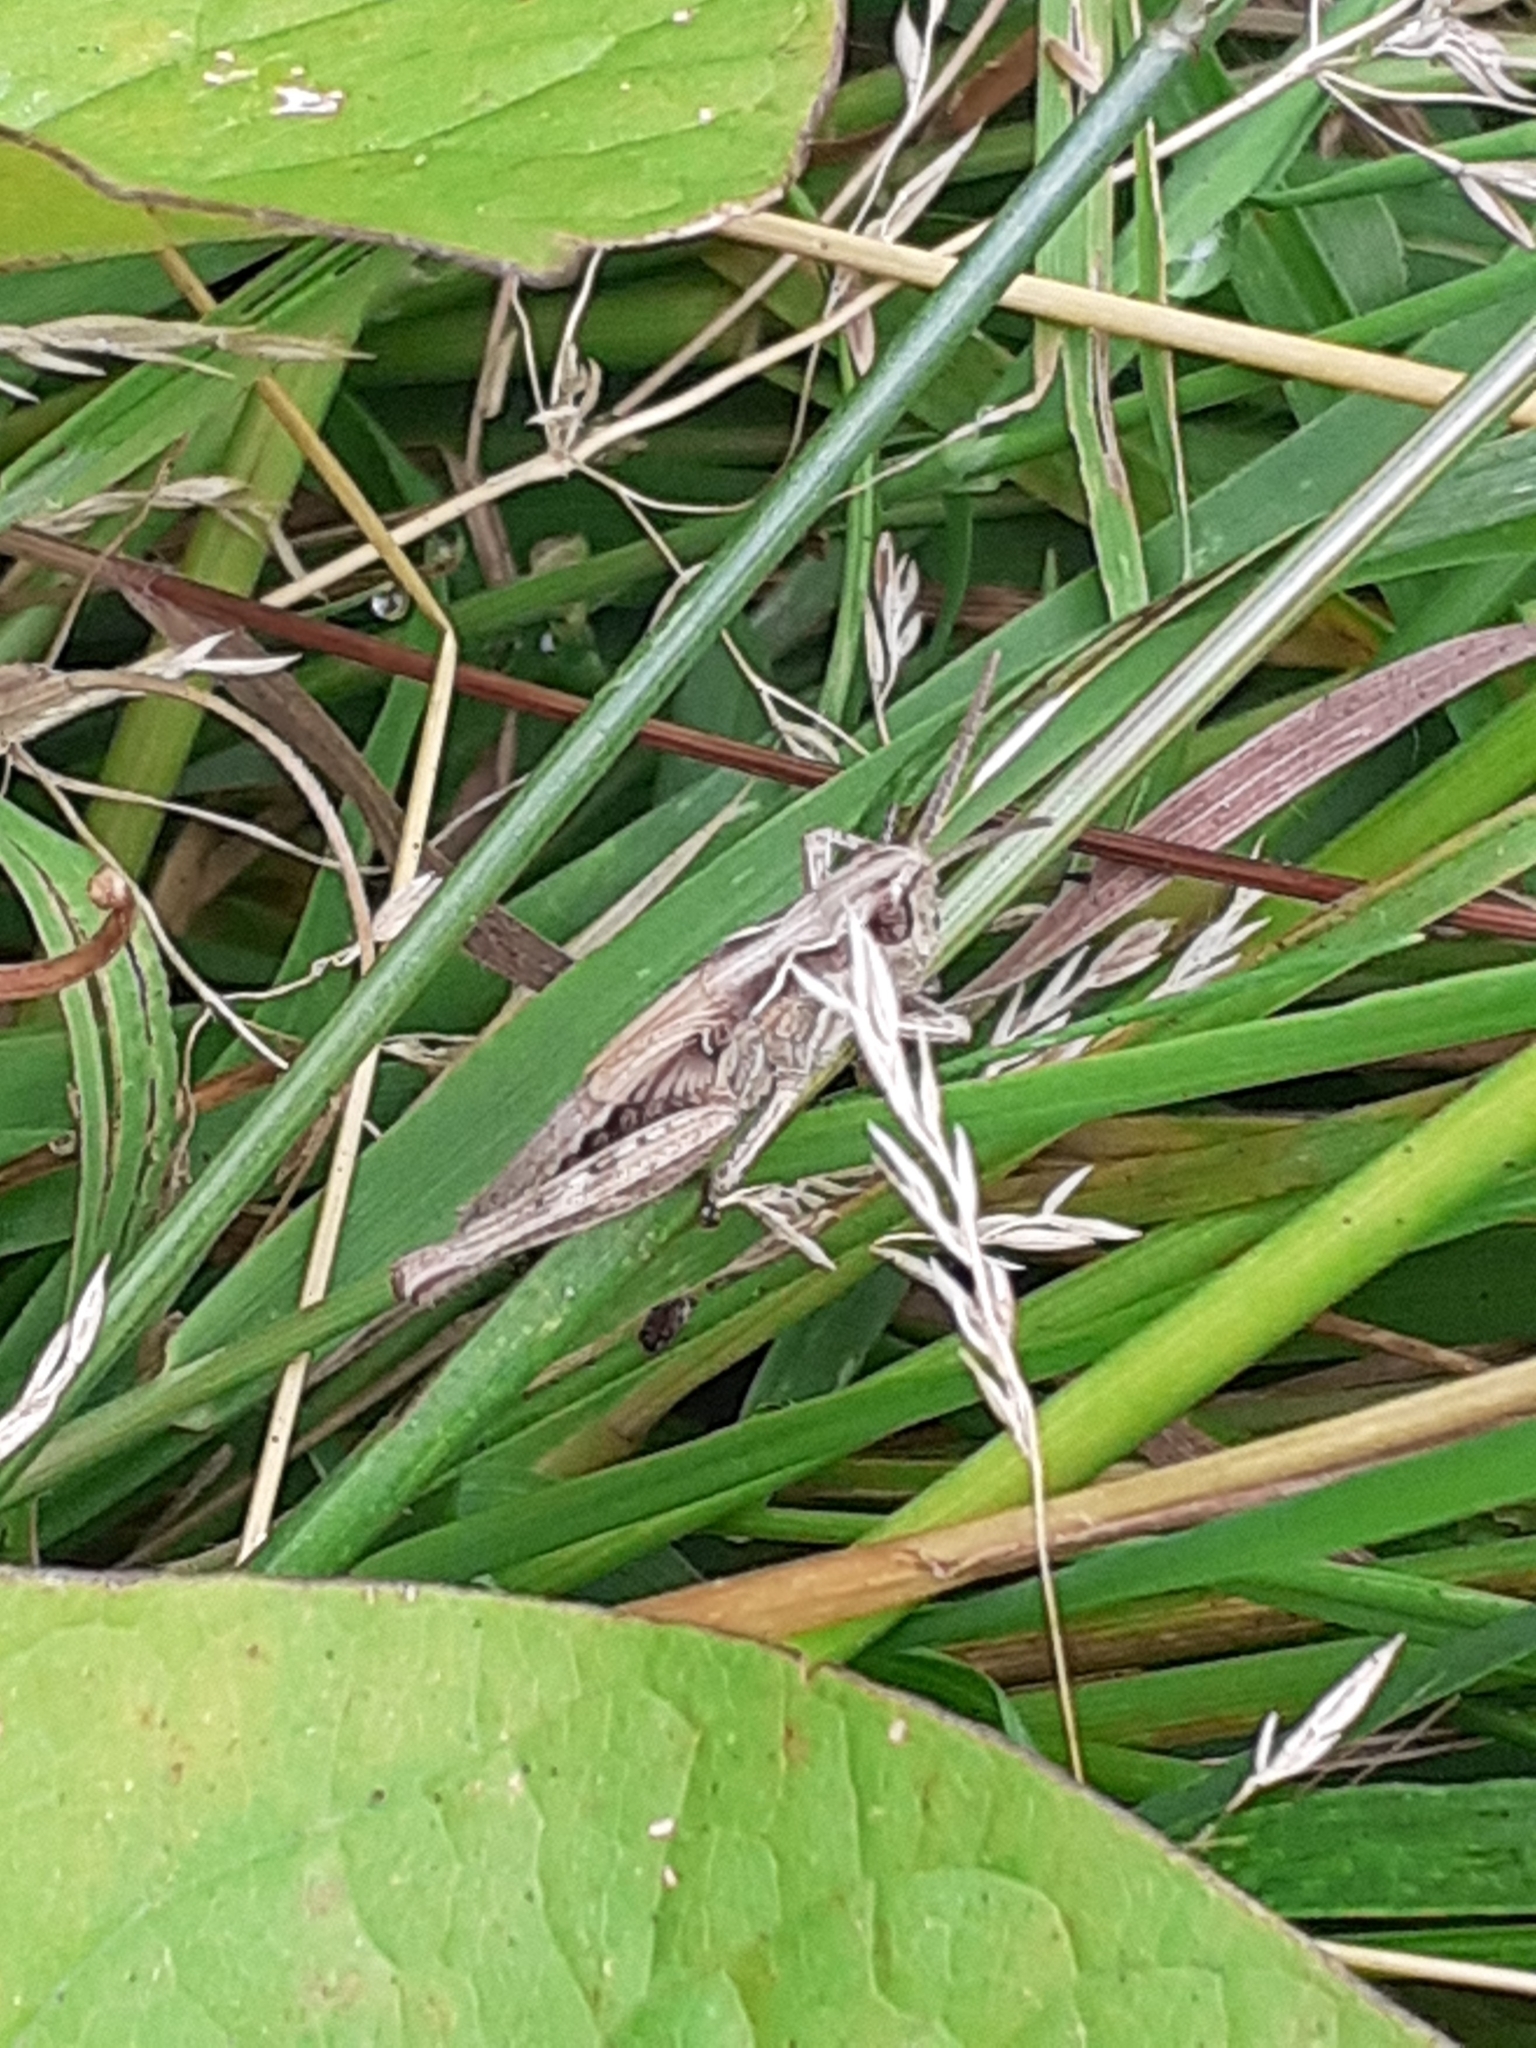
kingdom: Animalia
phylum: Arthropoda
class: Insecta
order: Orthoptera
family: Acrididae
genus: Chorthippus
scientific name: Chorthippus brunneus
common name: Field grasshopper
